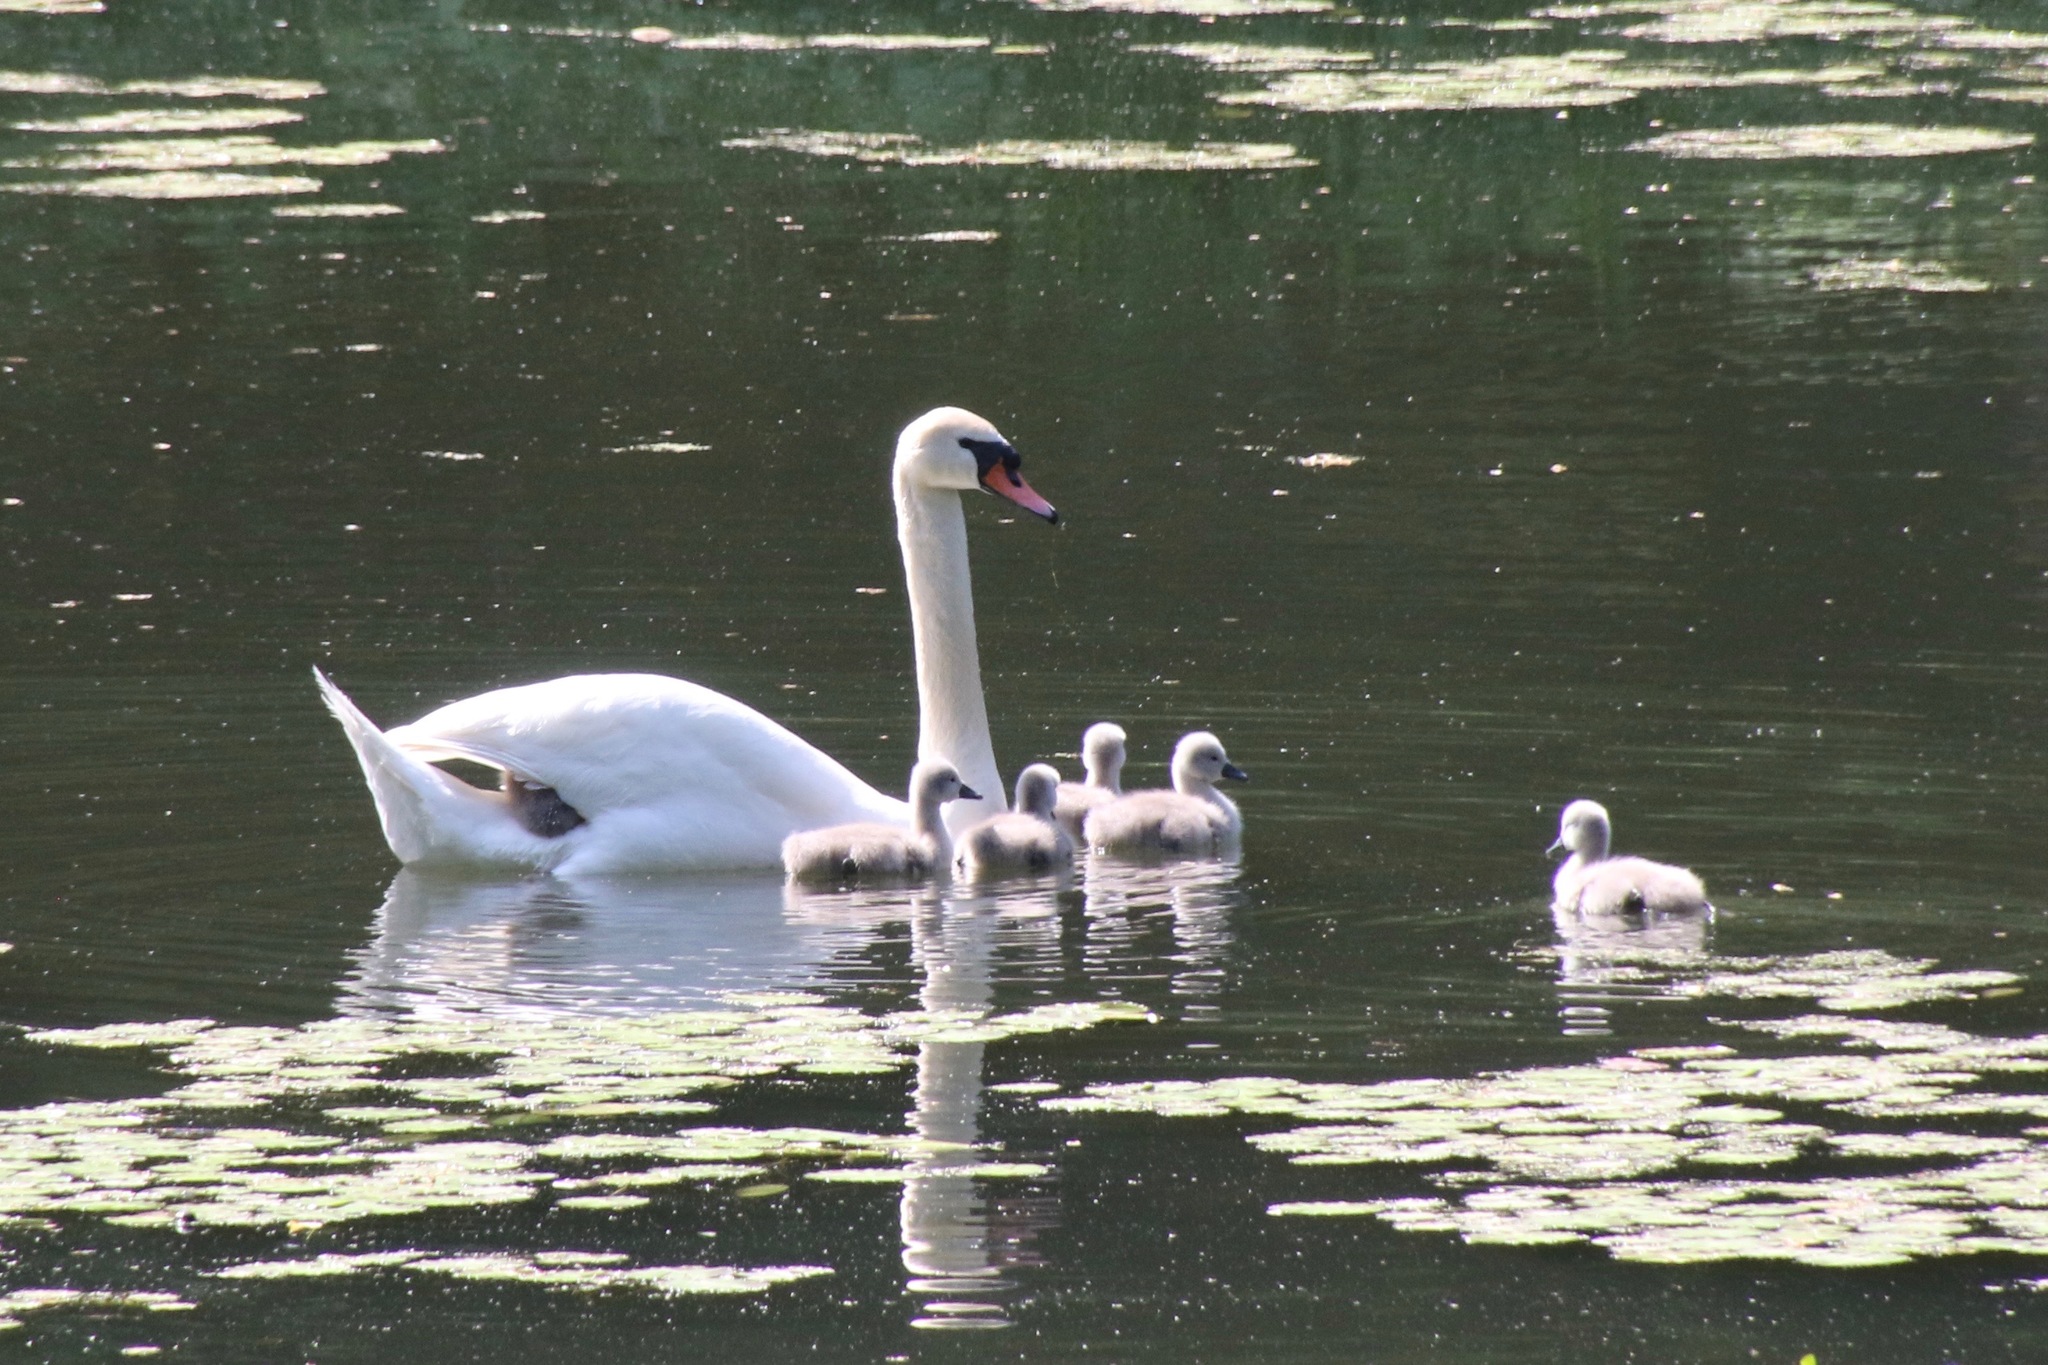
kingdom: Animalia
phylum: Chordata
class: Aves
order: Anseriformes
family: Anatidae
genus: Cygnus
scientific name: Cygnus olor
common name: Mute swan
